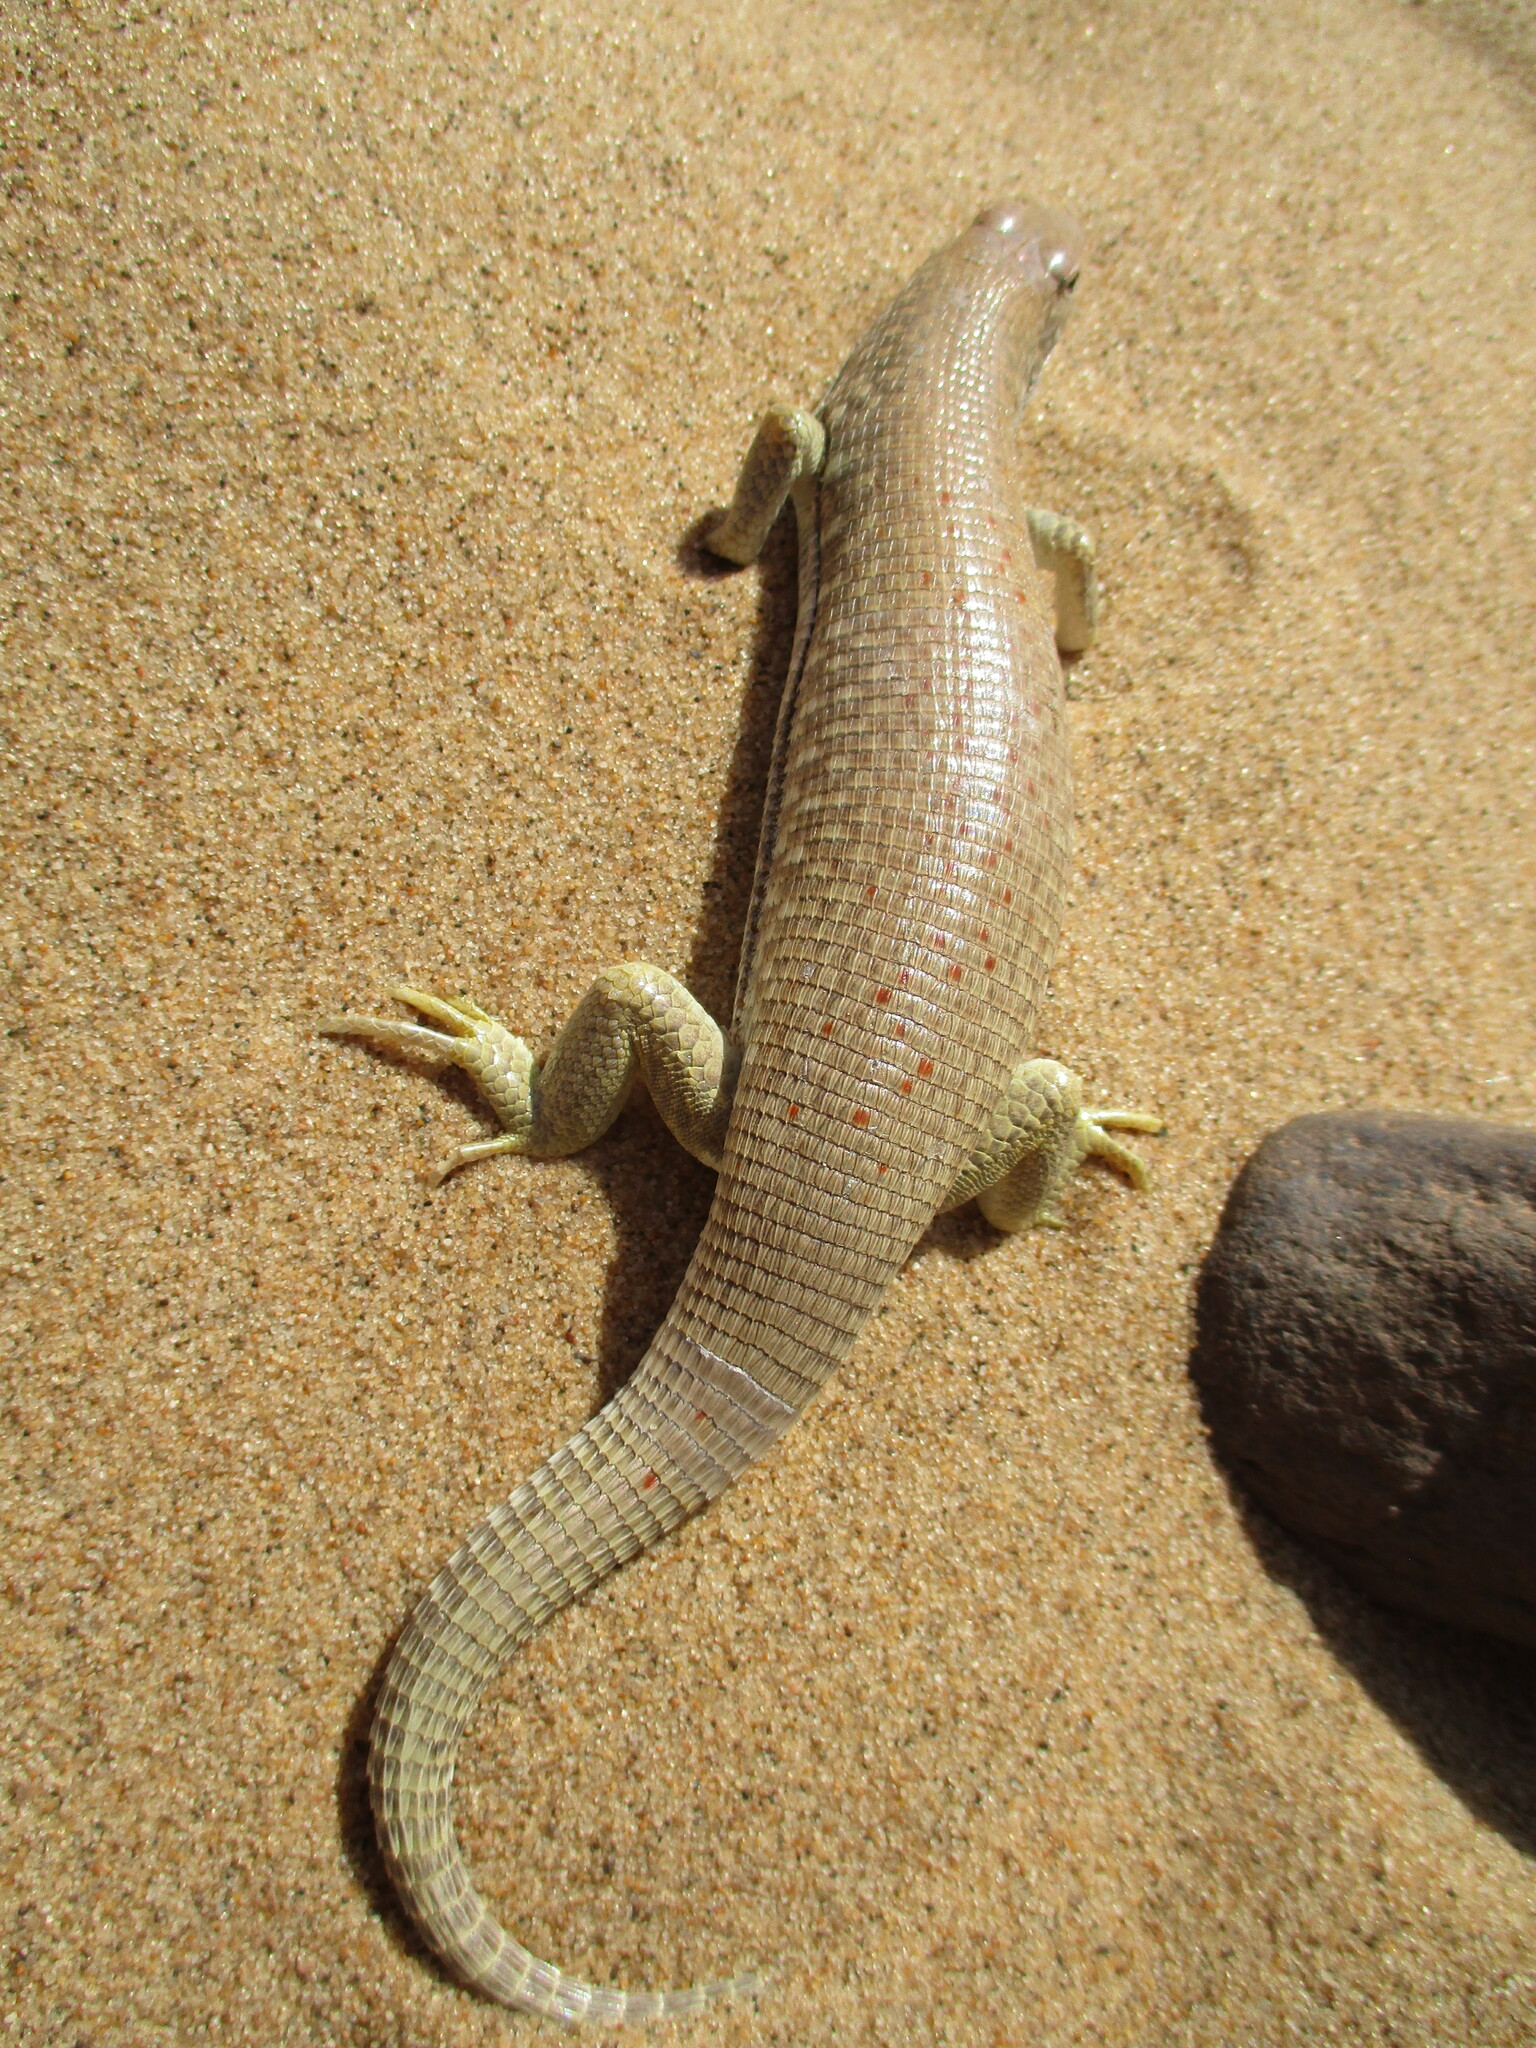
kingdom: Animalia
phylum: Chordata
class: Squamata
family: Gerrhosauridae
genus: Gerrhosaurus
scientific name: Gerrhosaurus skoogi
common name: Desert plated lizard
